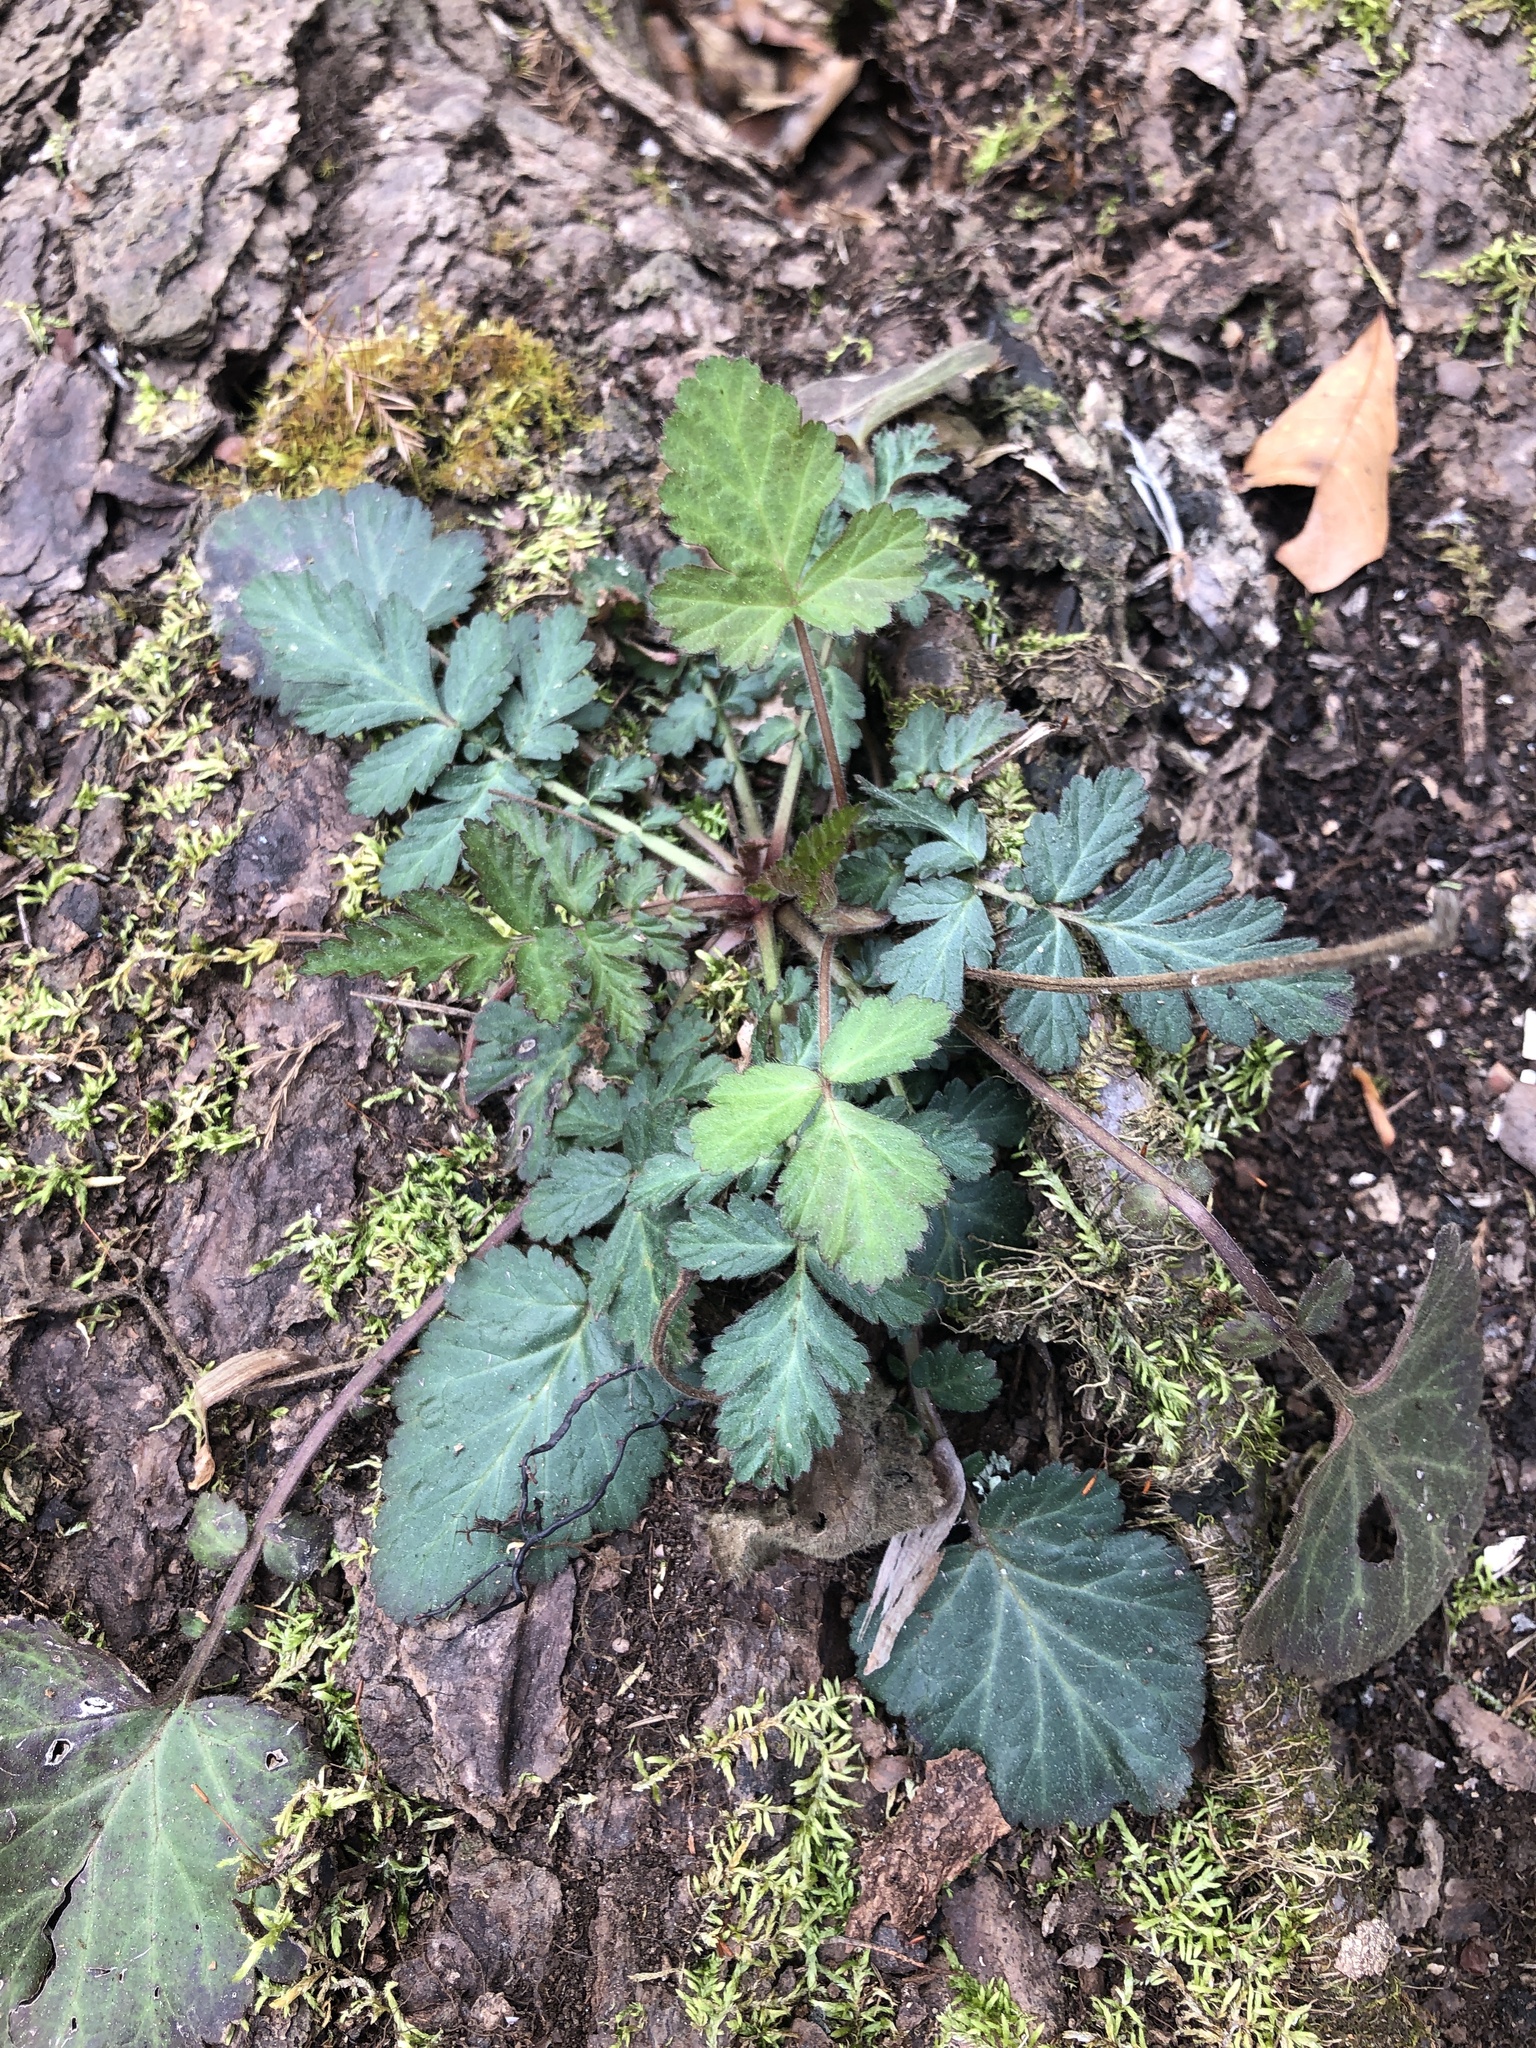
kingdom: Plantae
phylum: Tracheophyta
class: Magnoliopsida
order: Rosales
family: Rosaceae
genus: Geum
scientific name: Geum canadense
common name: White avens
